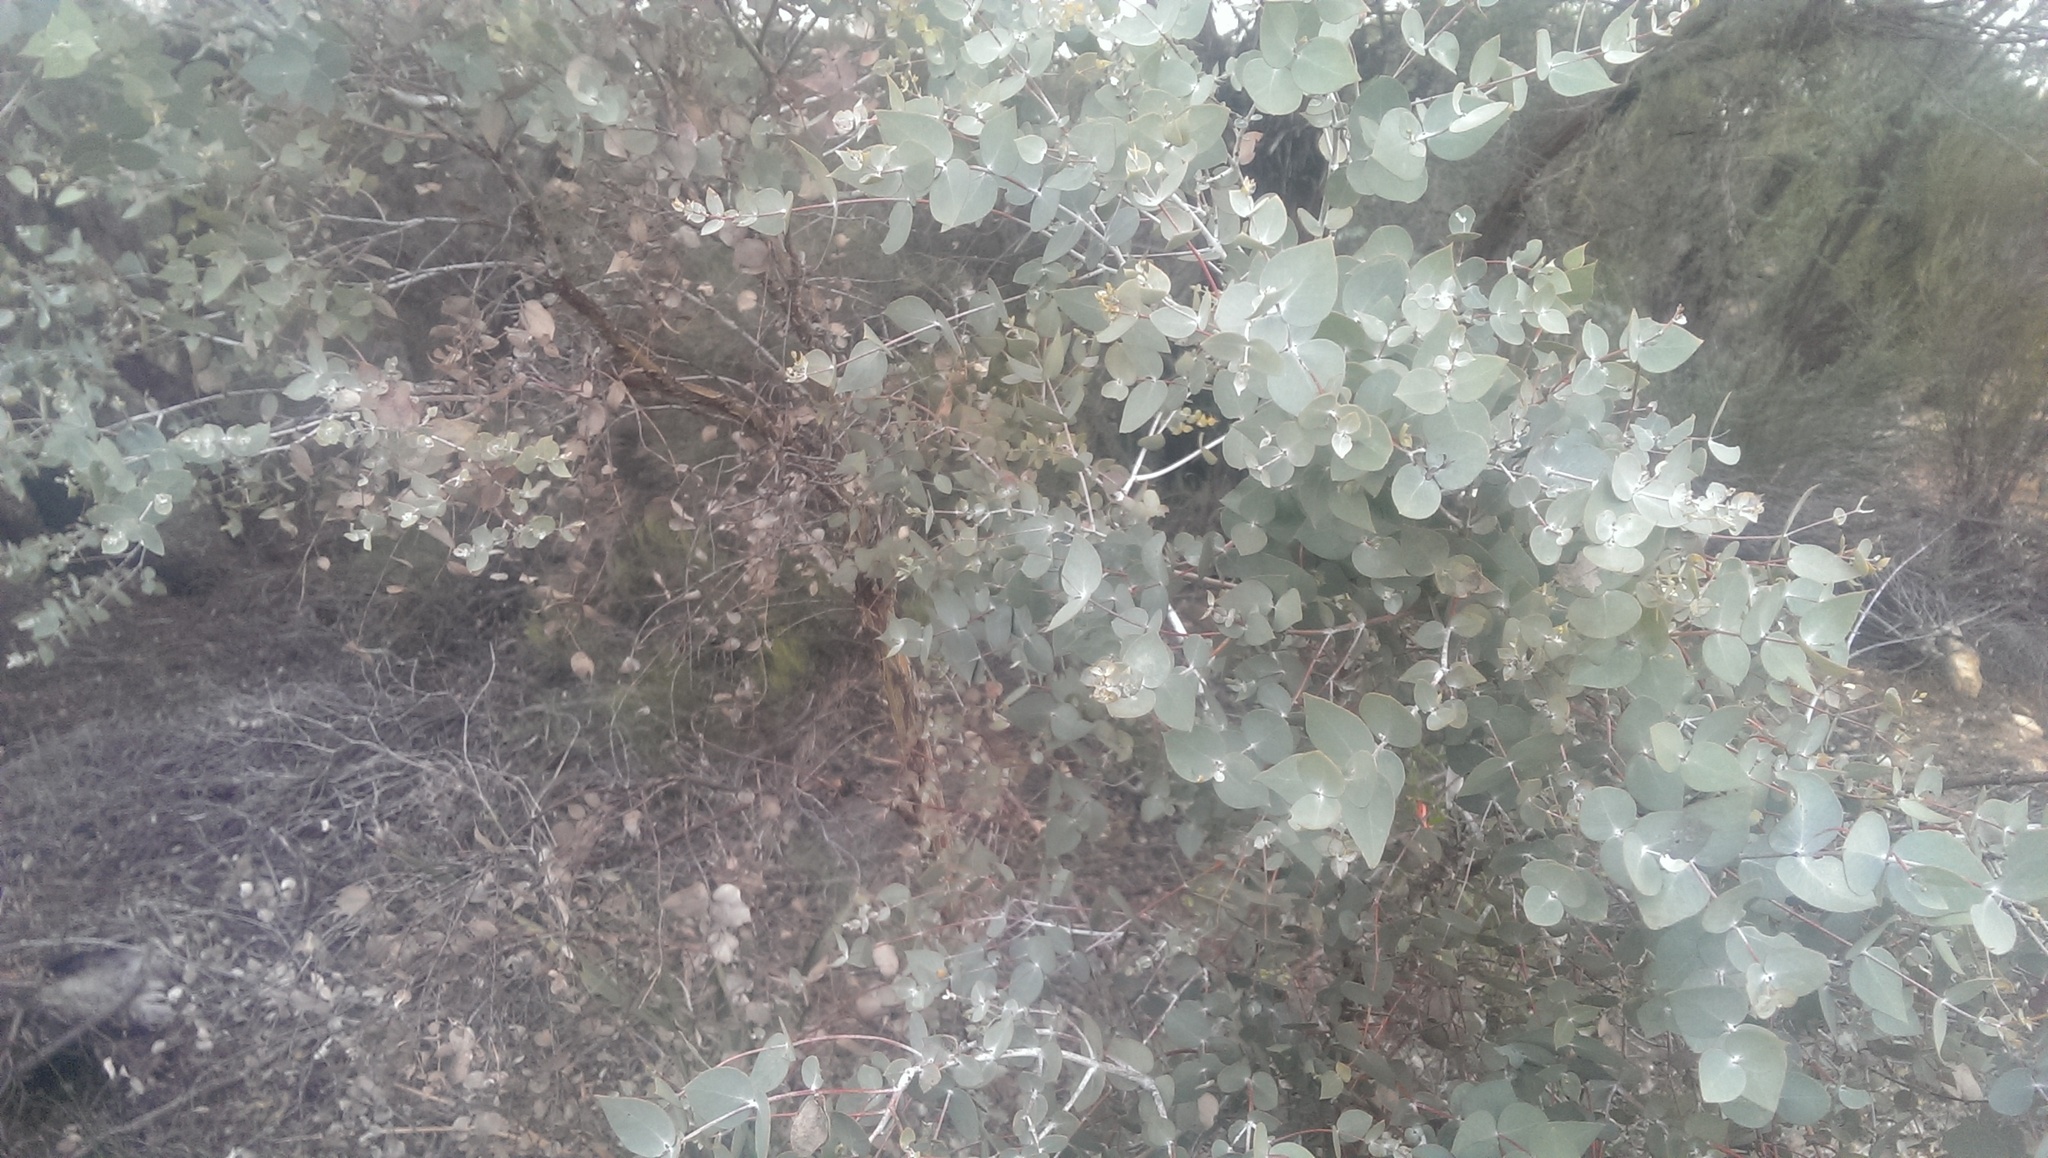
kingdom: Plantae
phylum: Tracheophyta
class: Magnoliopsida
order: Myrtales
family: Myrtaceae
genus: Eucalyptus
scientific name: Eucalyptus crucis
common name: Southern cross silver mallee
